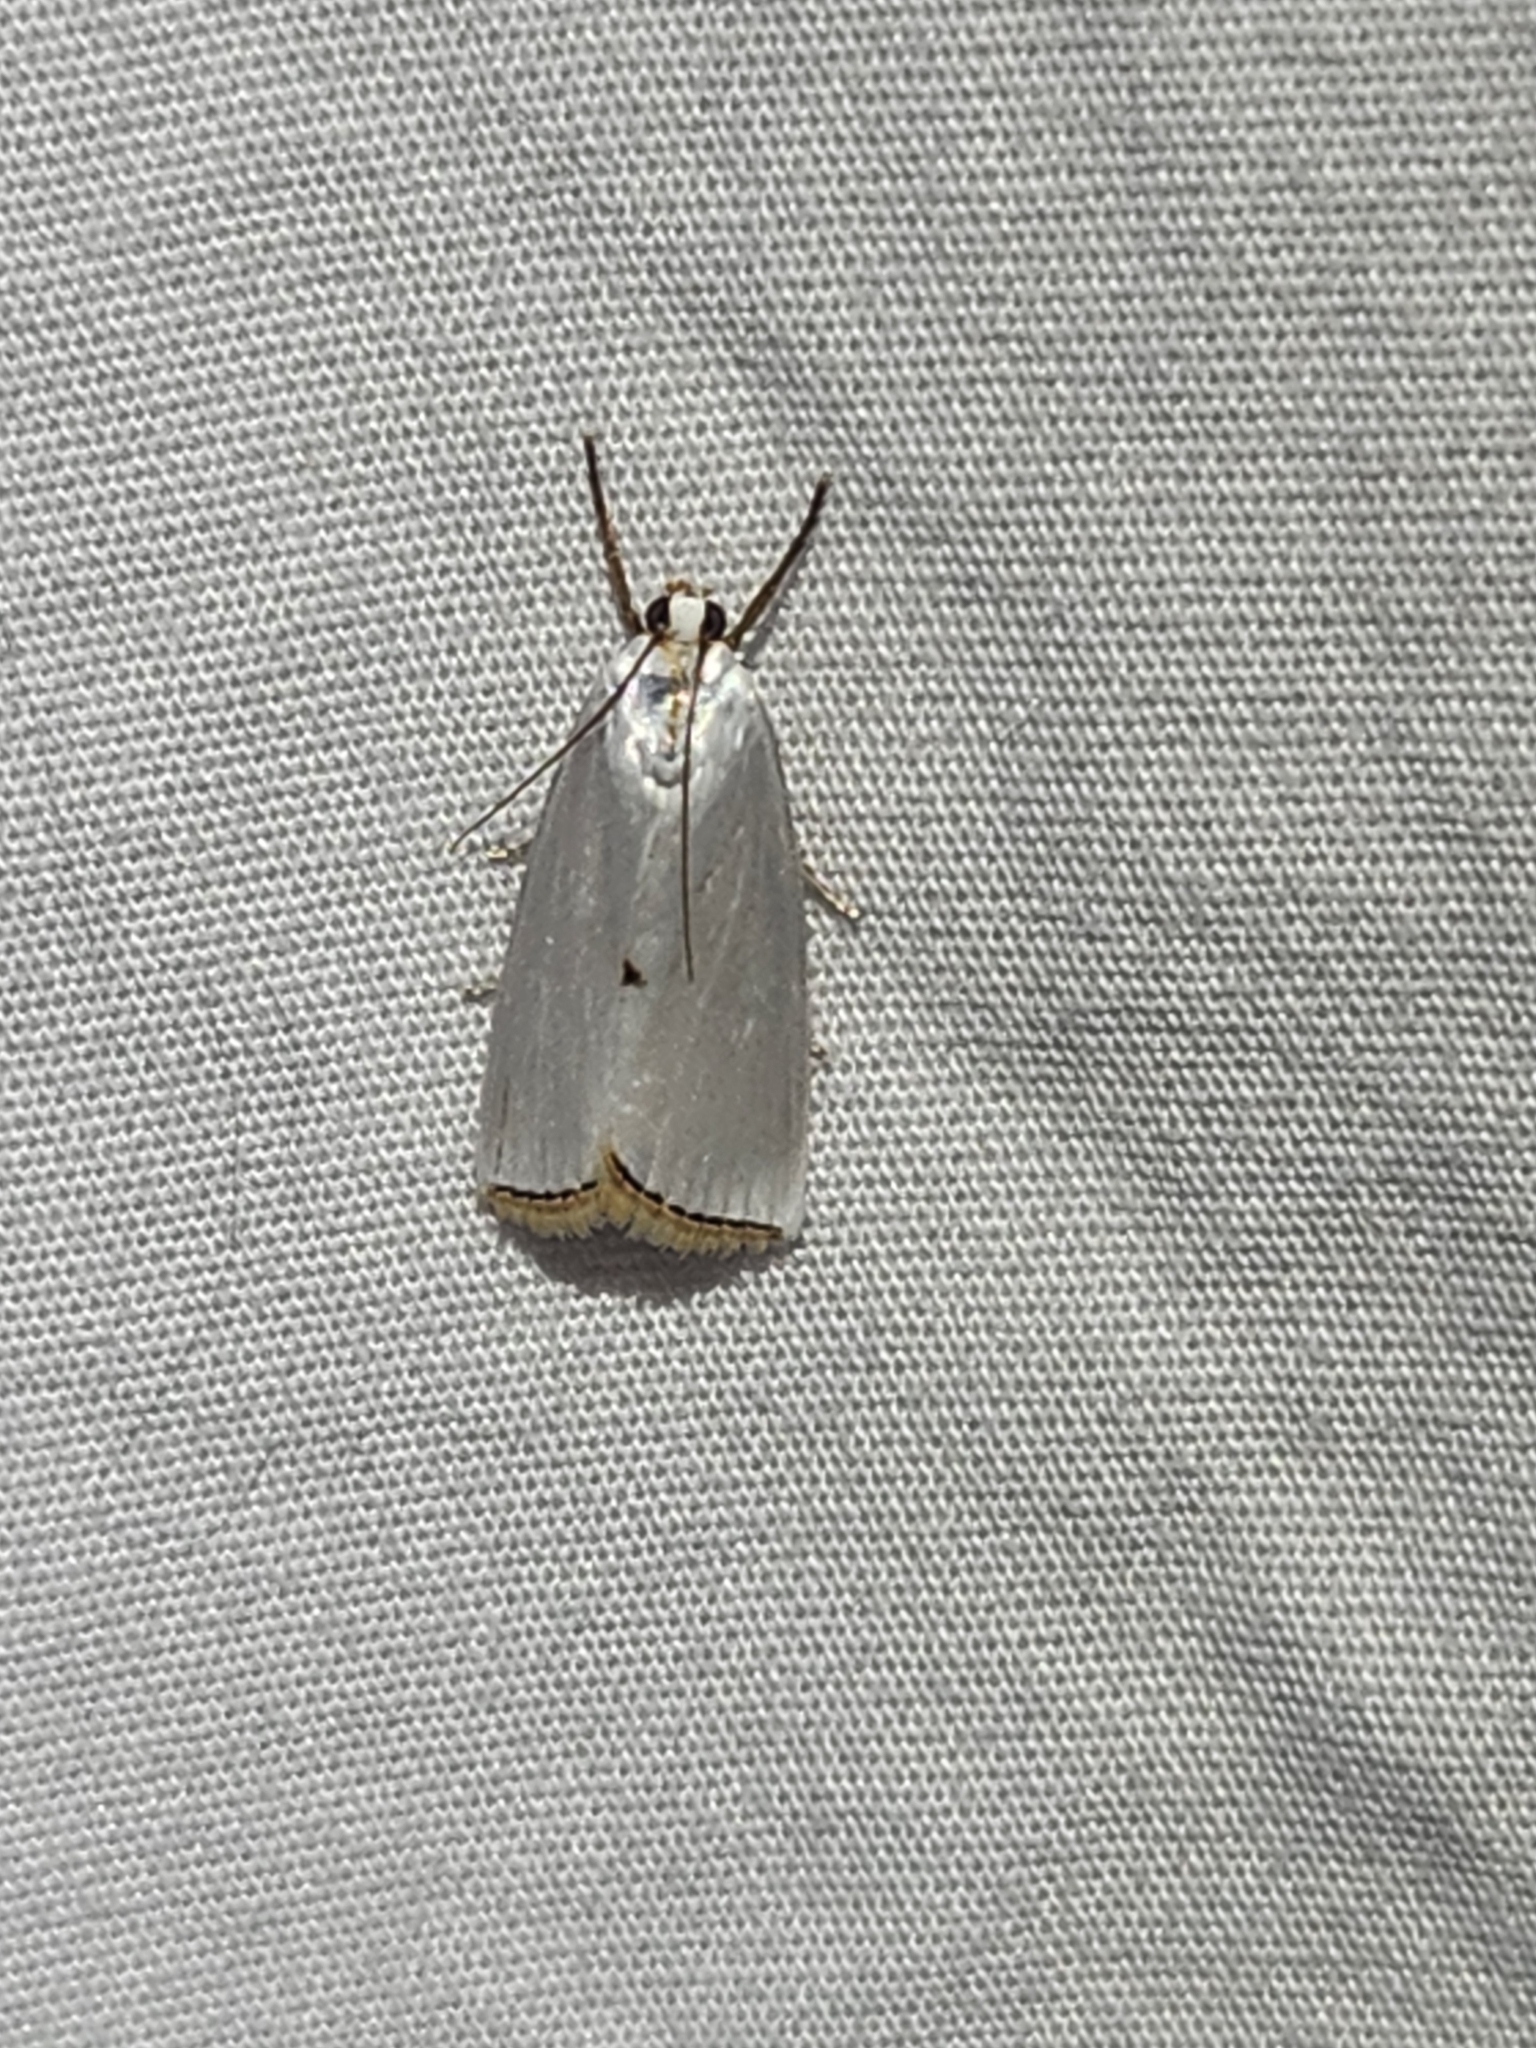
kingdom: Animalia
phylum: Arthropoda
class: Insecta
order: Lepidoptera
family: Crambidae
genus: Argyria
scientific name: Argyria nivalis
